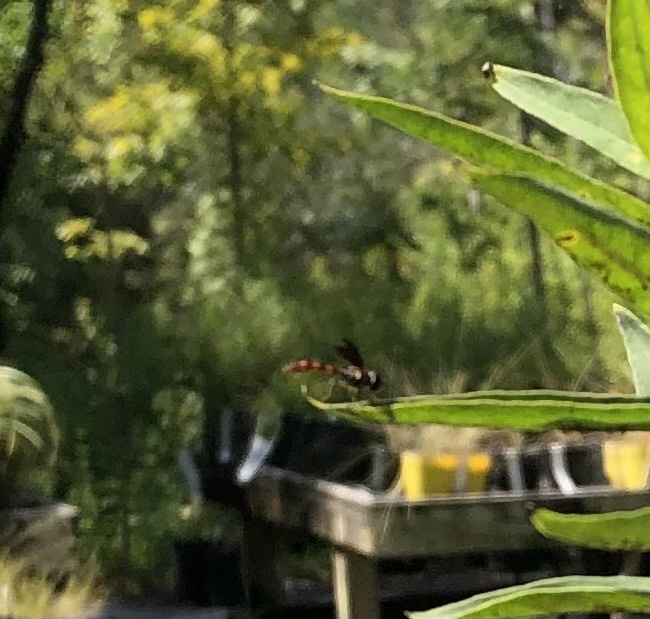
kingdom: Animalia
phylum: Arthropoda
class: Insecta
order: Diptera
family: Syrphidae
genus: Ocyptamus
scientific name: Ocyptamus fuscipennis
